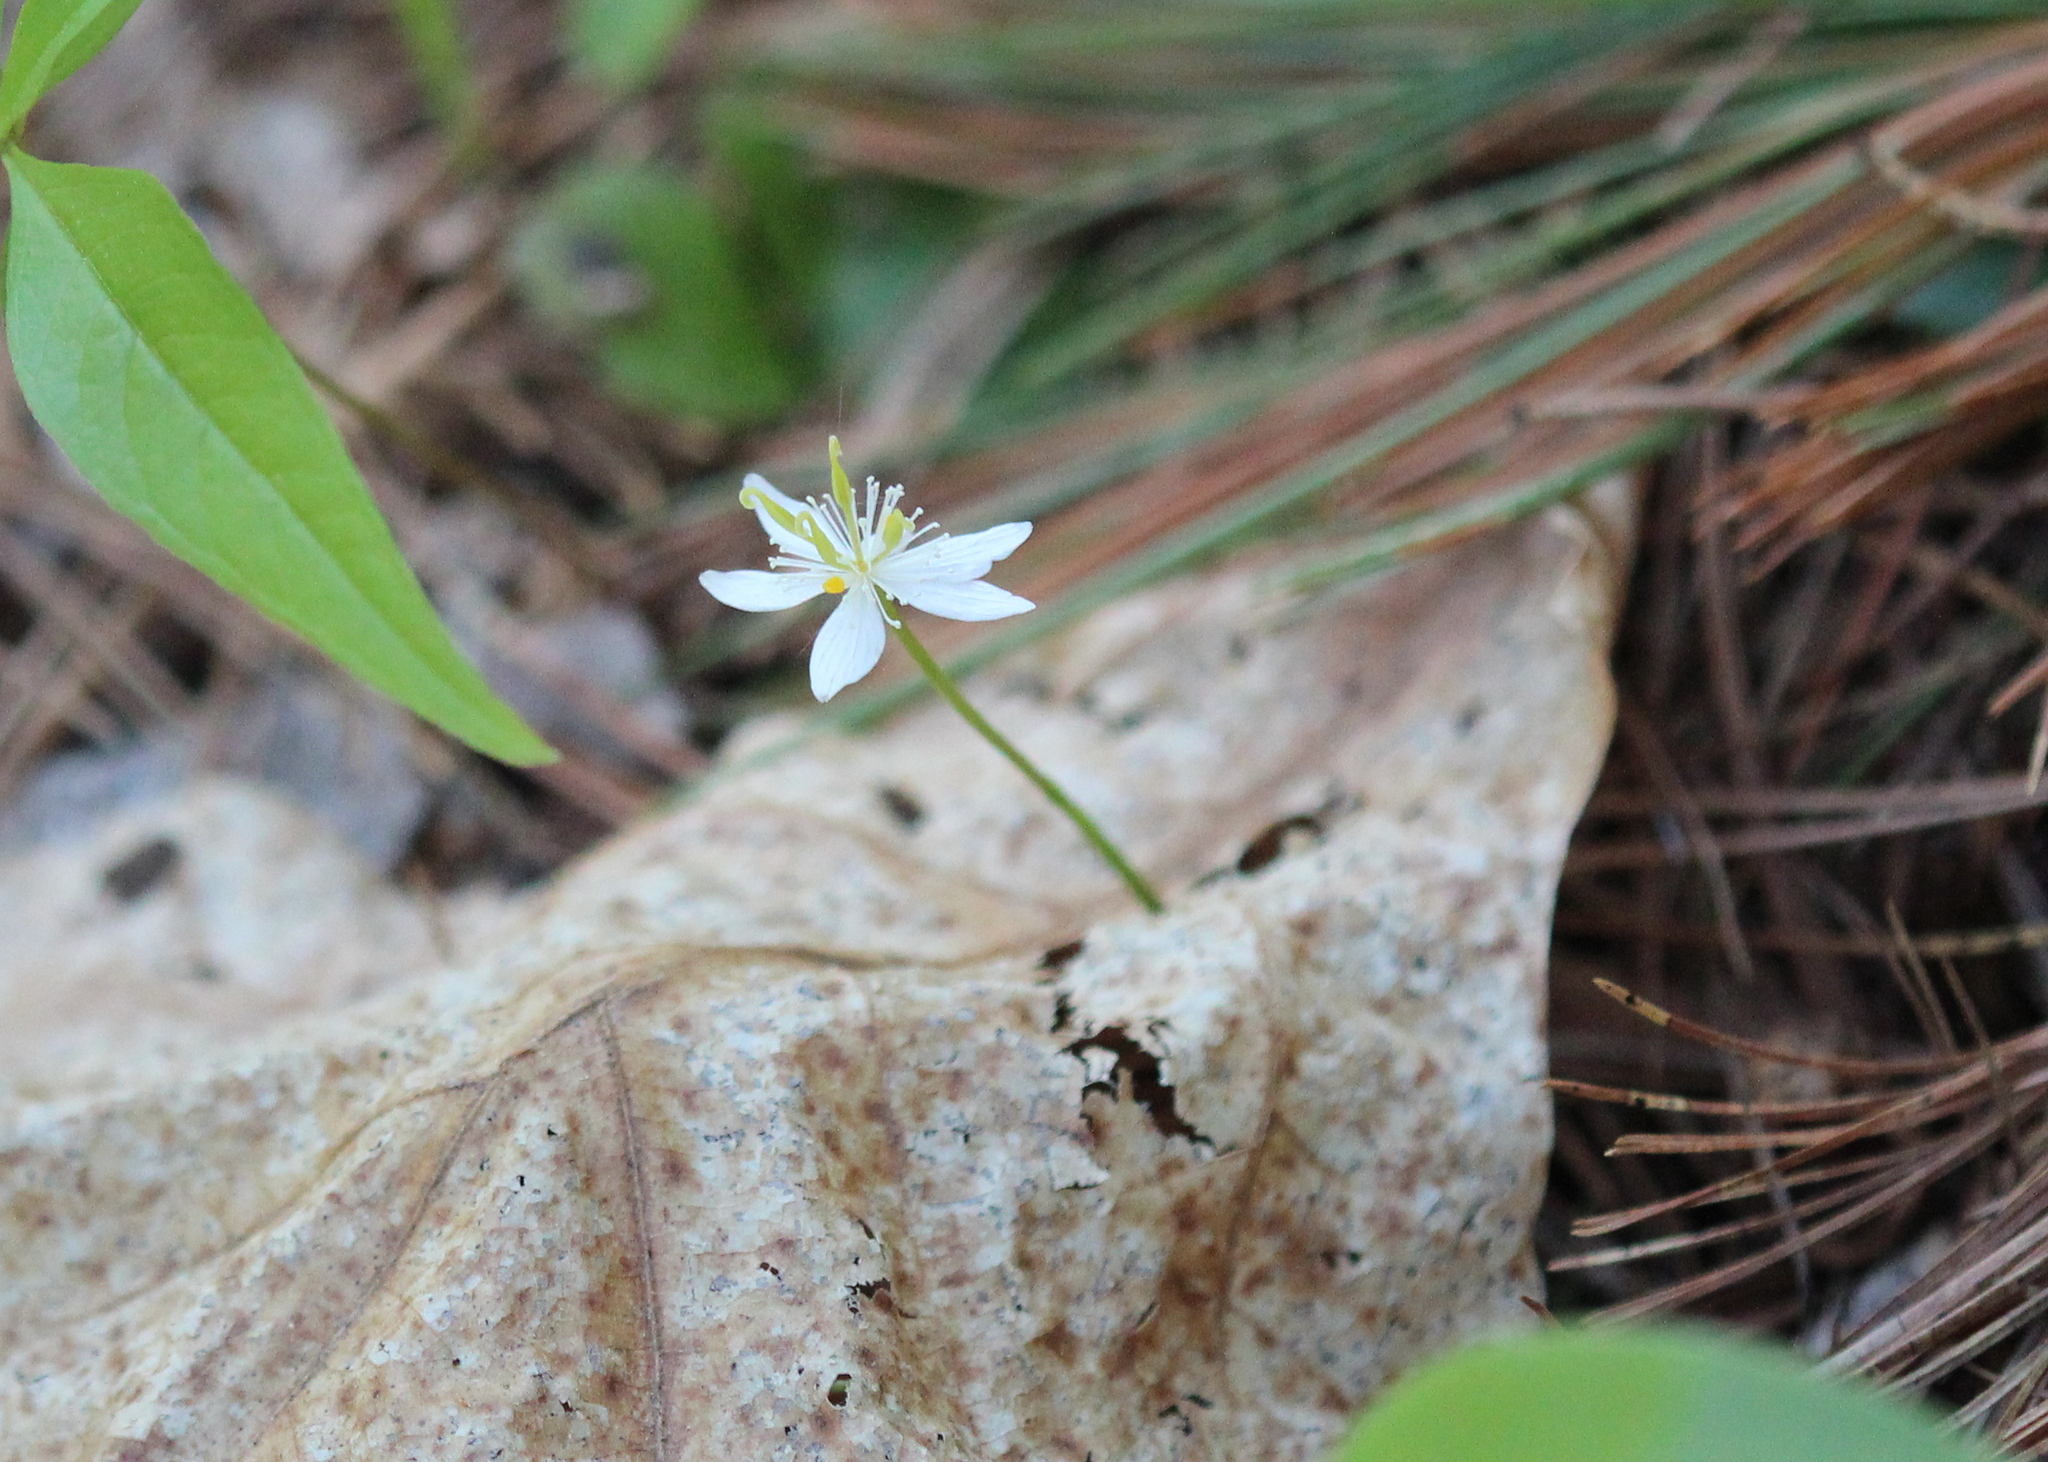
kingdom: Plantae
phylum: Tracheophyta
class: Magnoliopsida
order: Ranunculales
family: Ranunculaceae
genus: Coptis
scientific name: Coptis trifolia
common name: Canker-root
